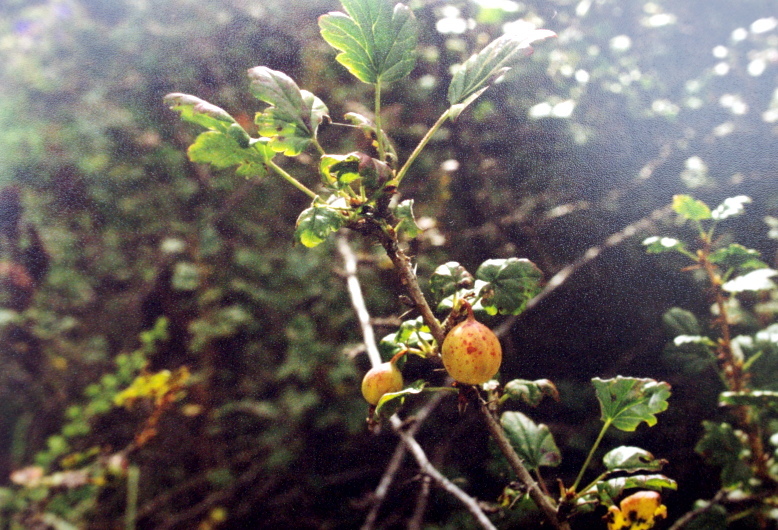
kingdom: Plantae
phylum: Tracheophyta
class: Magnoliopsida
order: Saxifragales
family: Grossulariaceae
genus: Ribes
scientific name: Ribes aciculare
